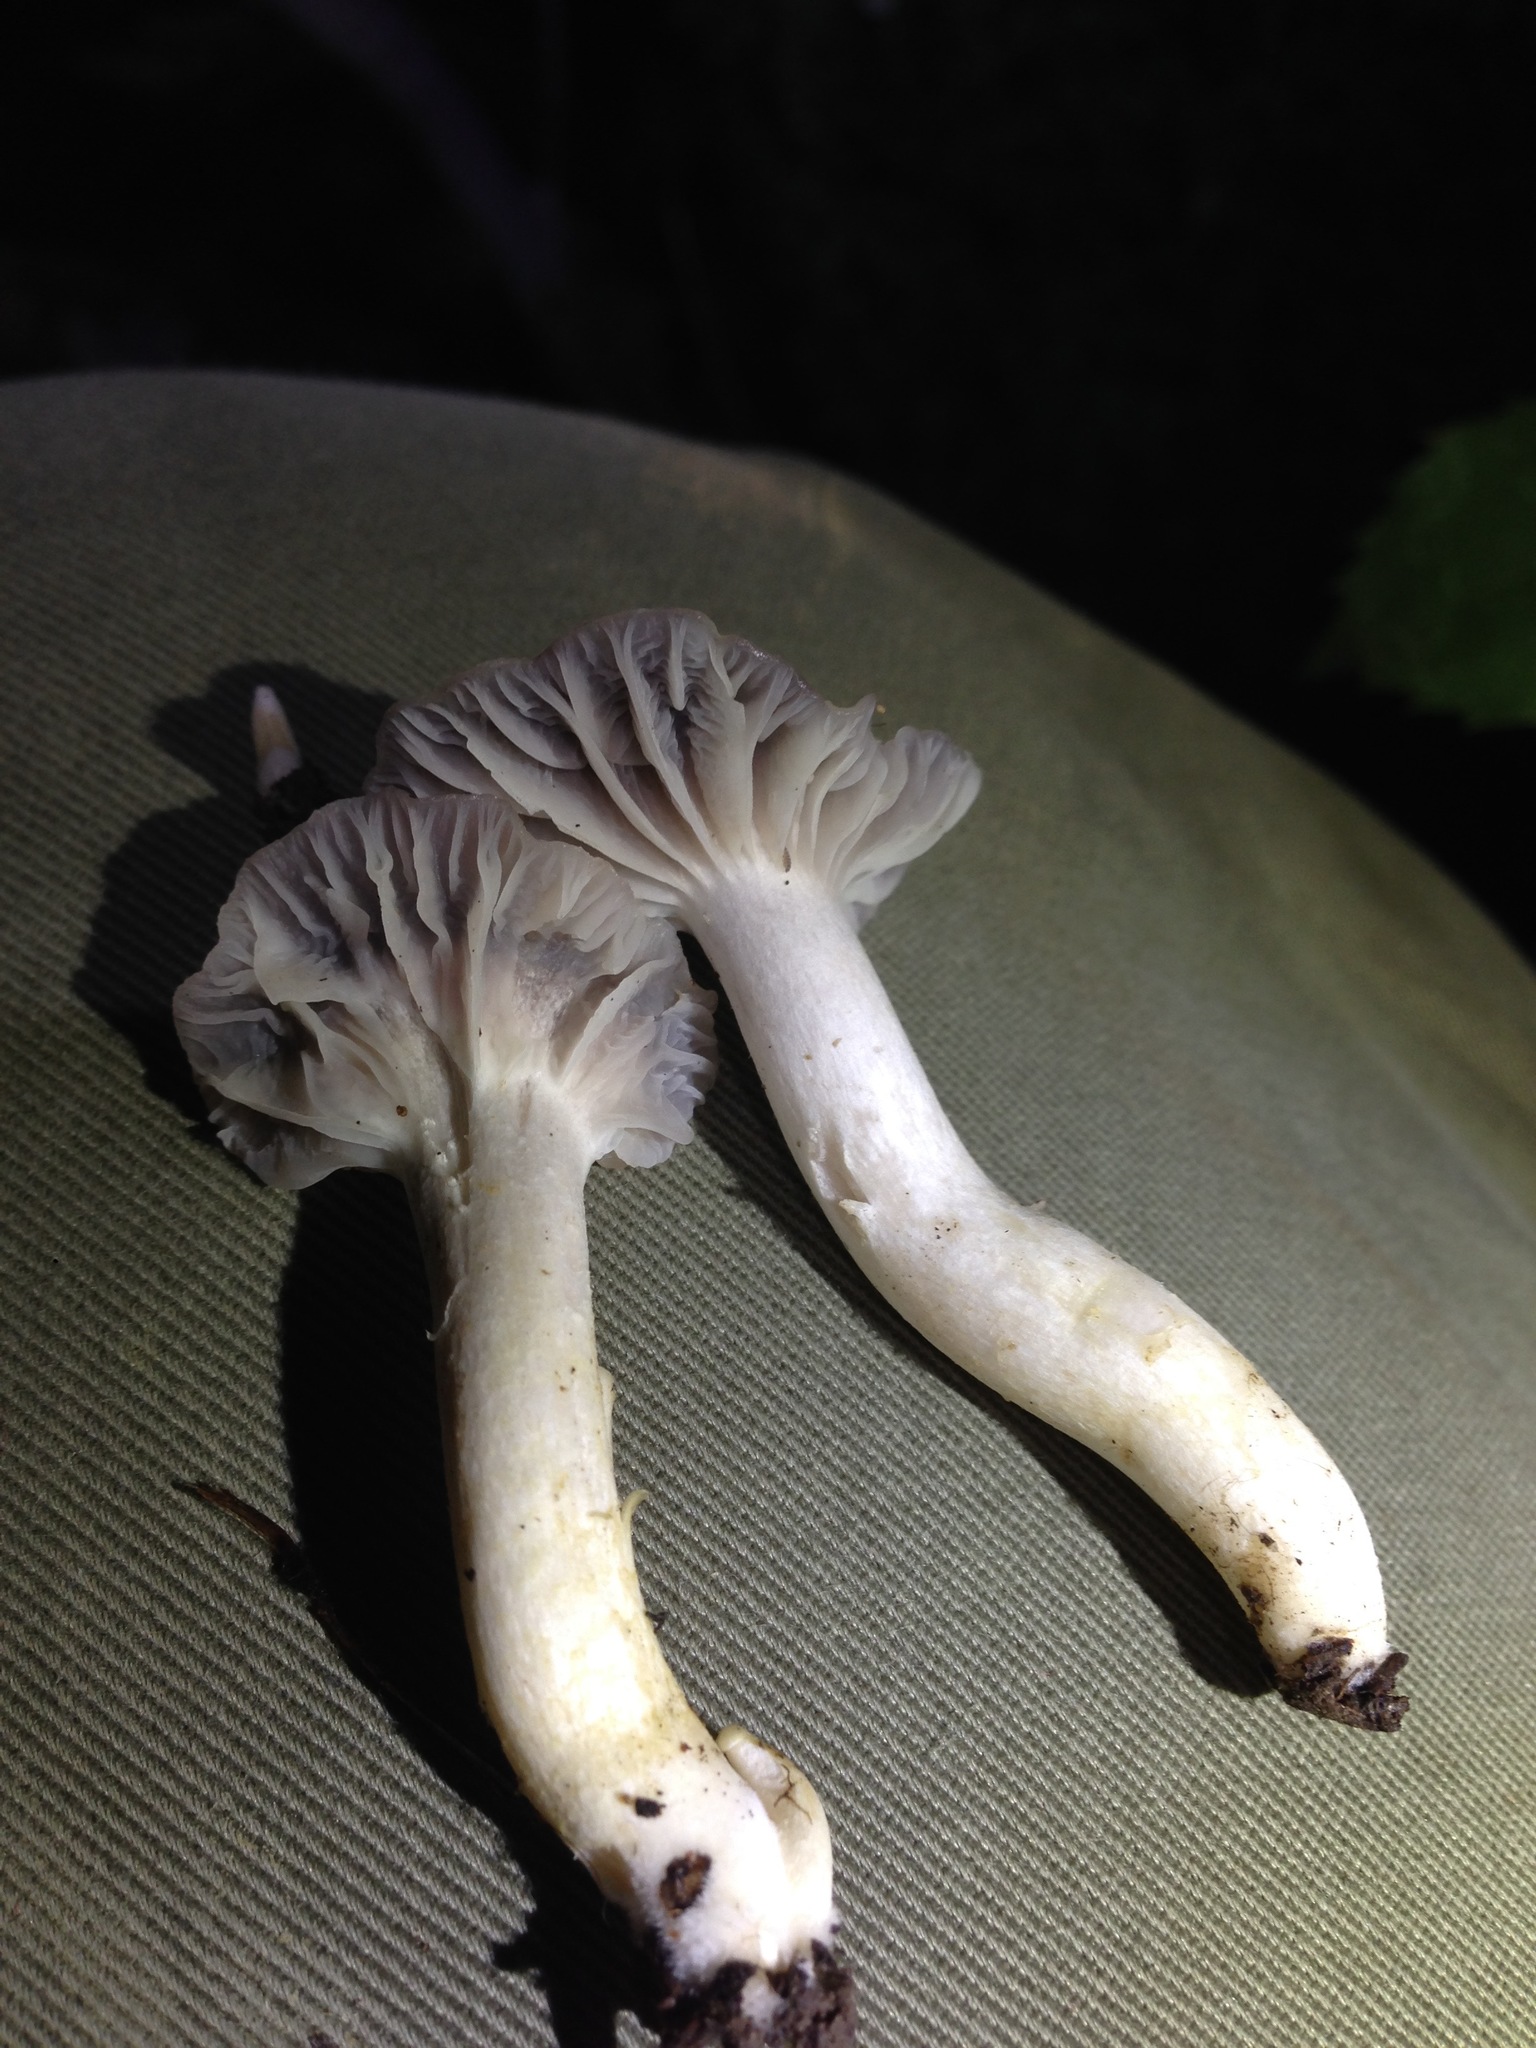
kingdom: Fungi
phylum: Basidiomycota
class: Agaricomycetes
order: Agaricales
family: Hygrophoraceae
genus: Cuphophyllus
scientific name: Cuphophyllus lacmus
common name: Grey waxcap
